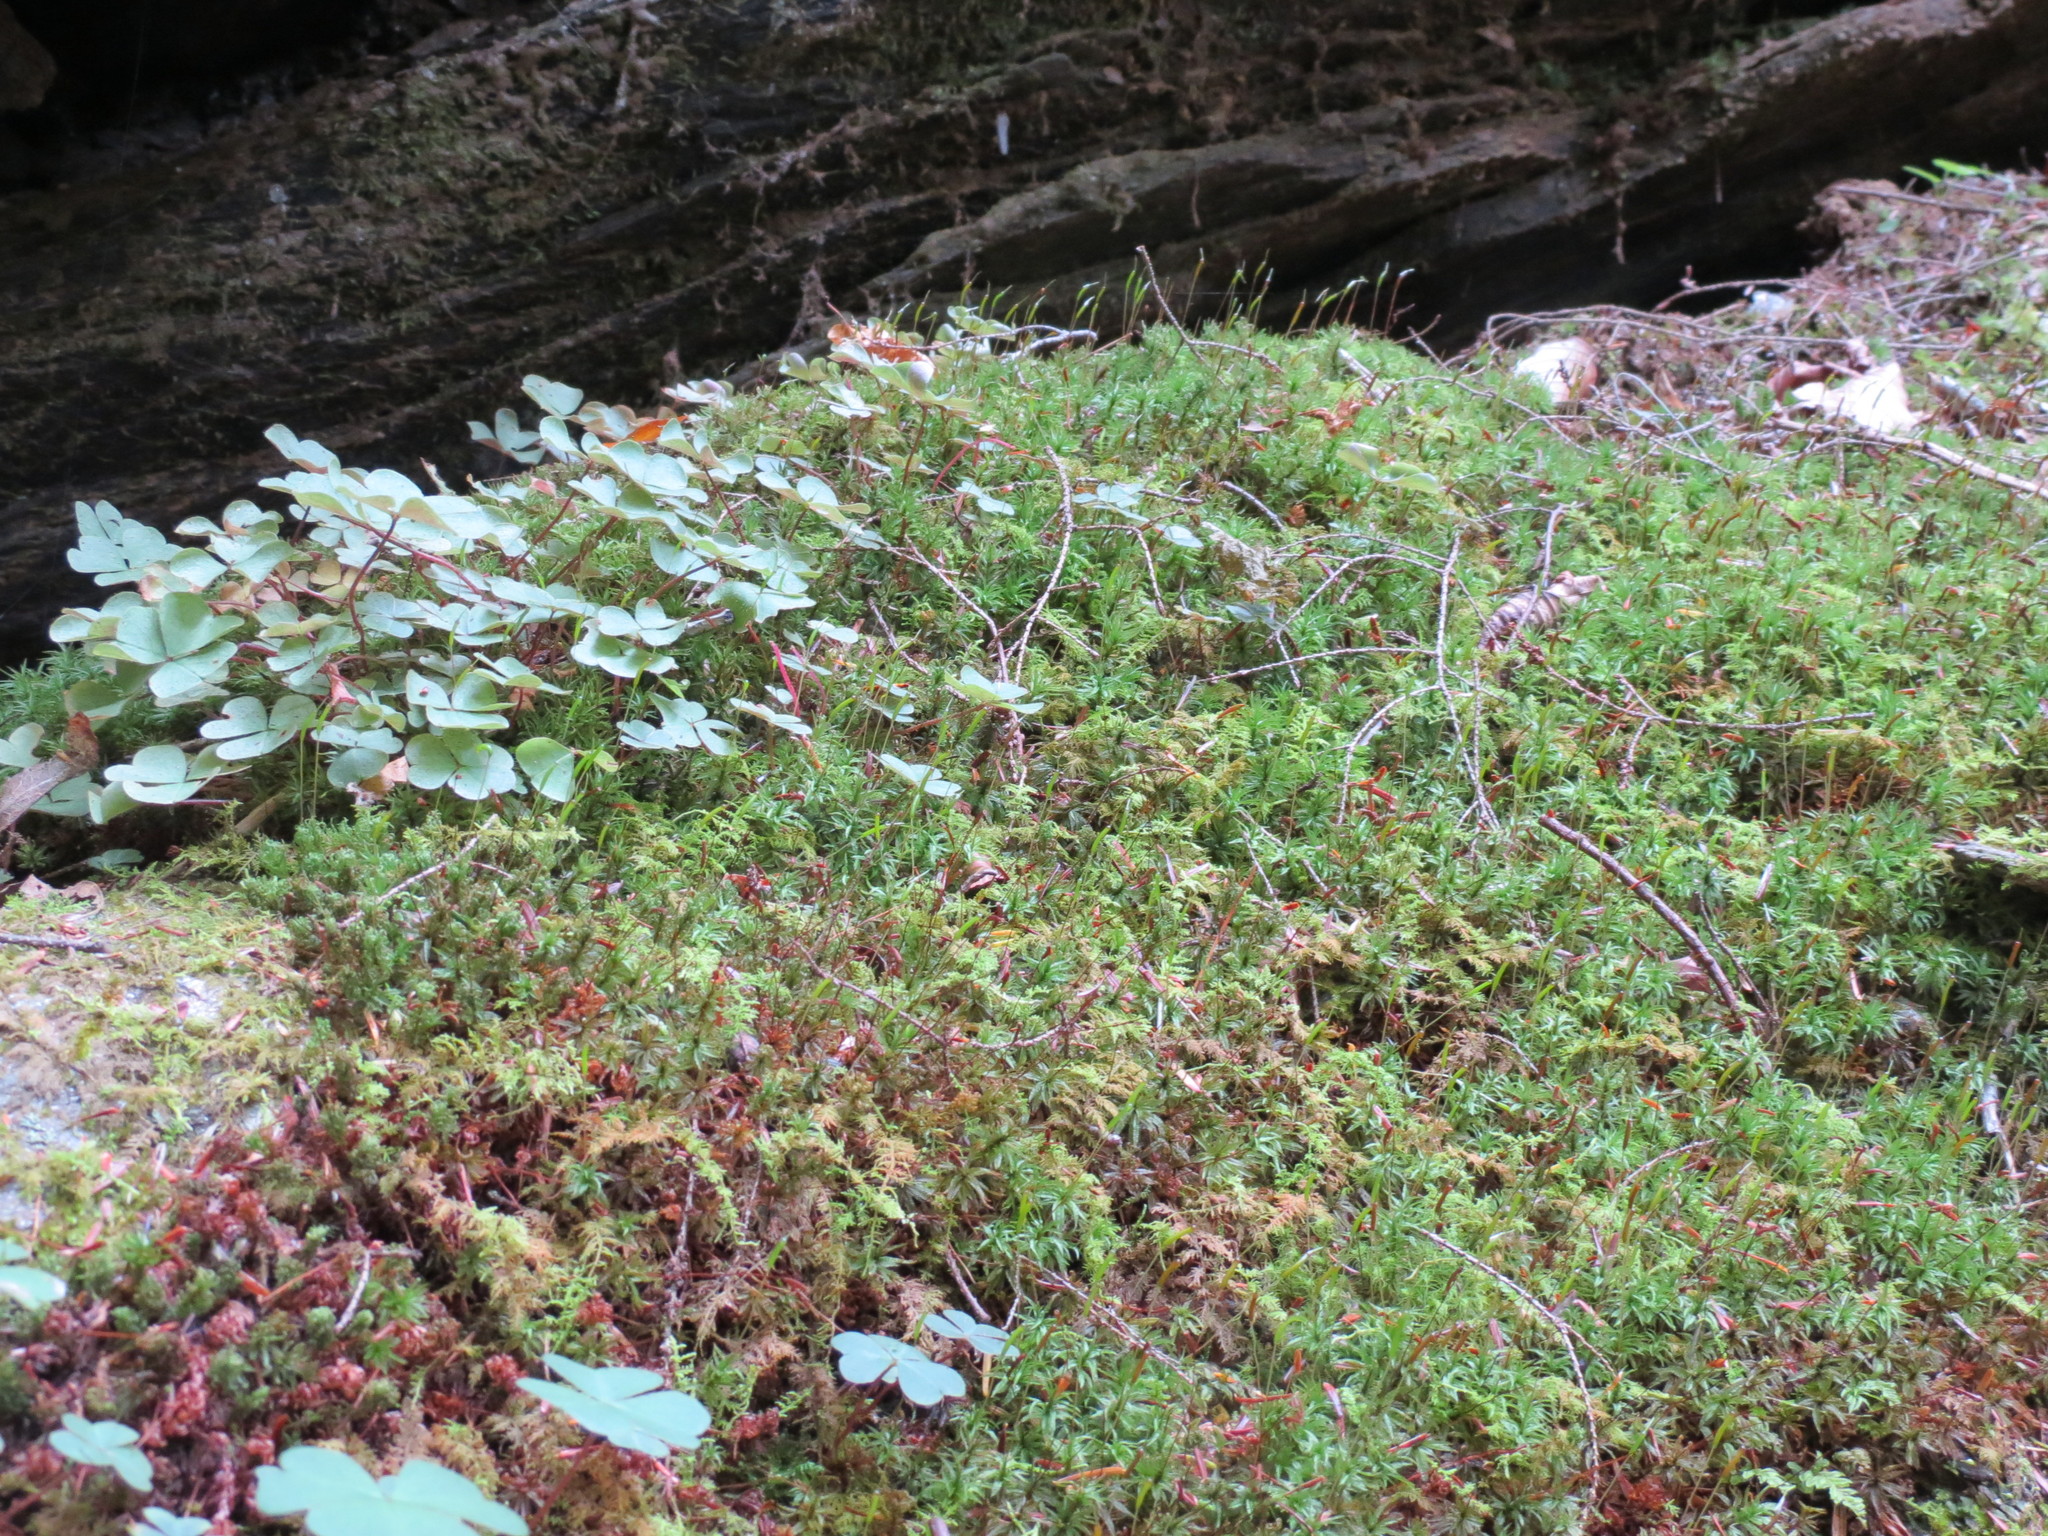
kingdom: Plantae
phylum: Tracheophyta
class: Magnoliopsida
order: Oxalidales
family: Oxalidaceae
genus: Oxalis
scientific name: Oxalis montana
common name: American wood-sorrel
